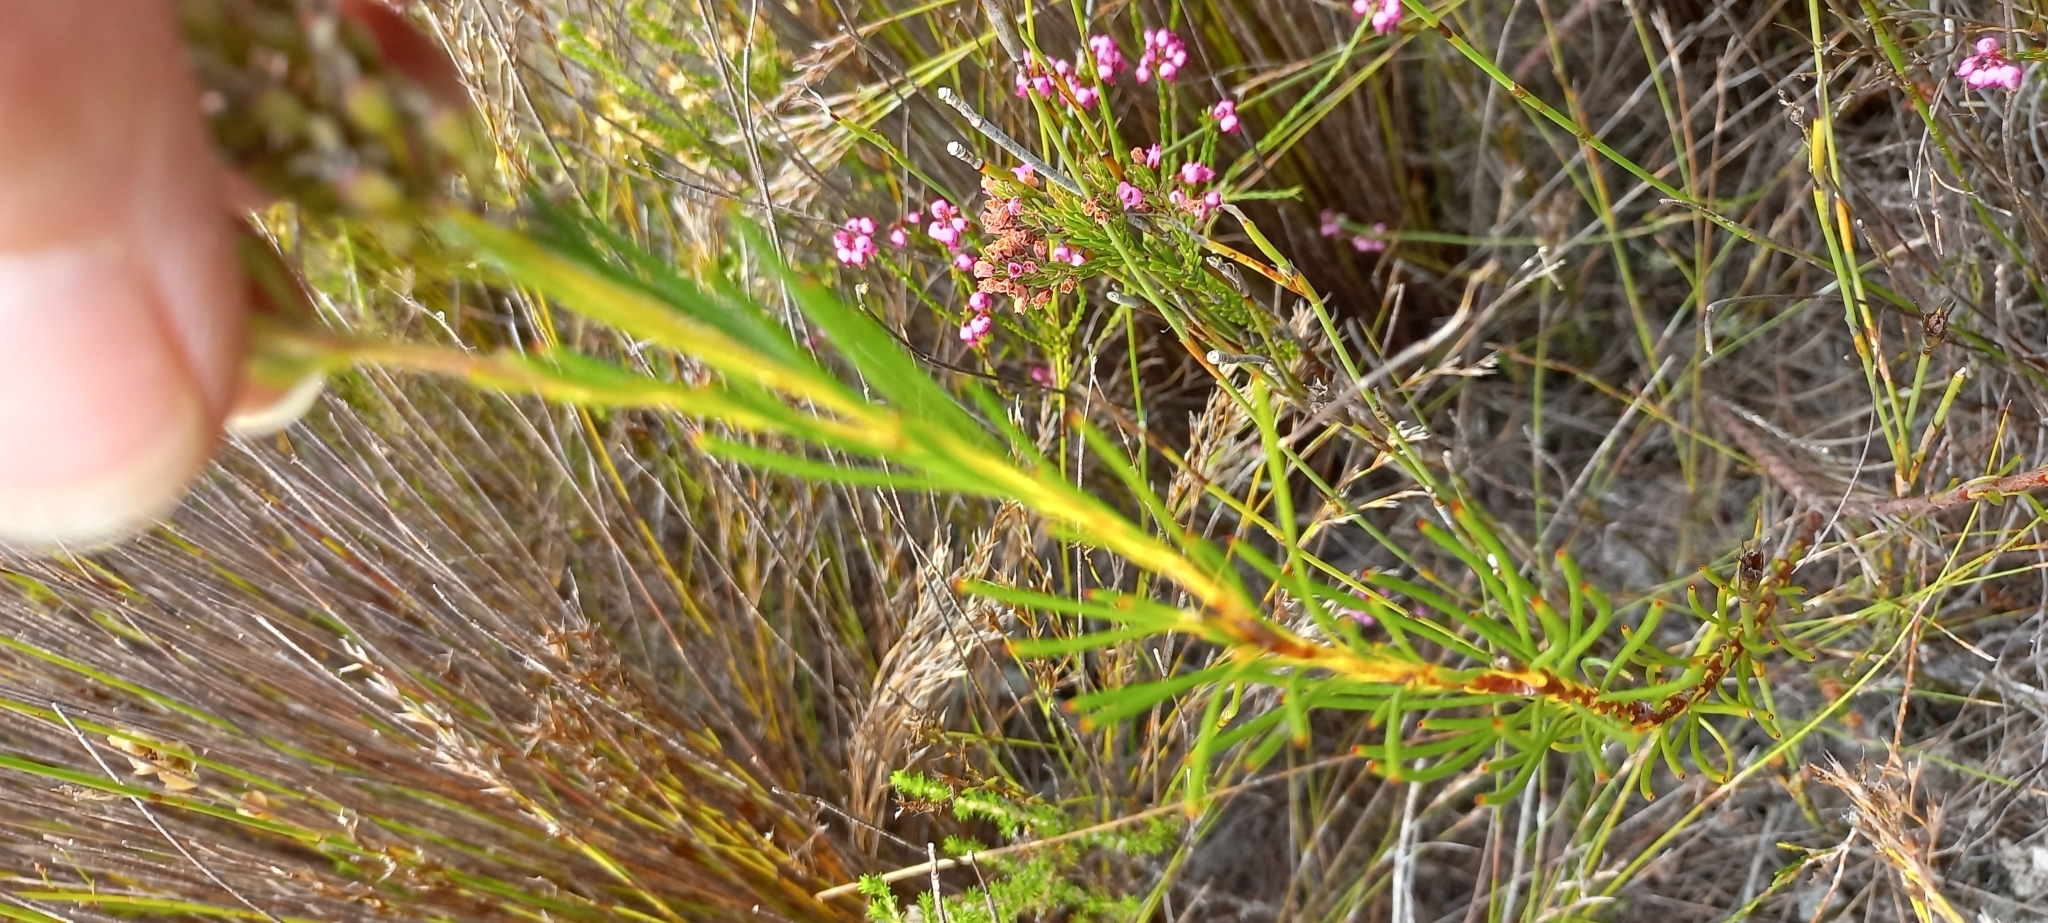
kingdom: Plantae
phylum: Tracheophyta
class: Magnoliopsida
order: Proteales
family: Proteaceae
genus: Spatalla
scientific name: Spatalla curvifolia
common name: White-stalked spoon
